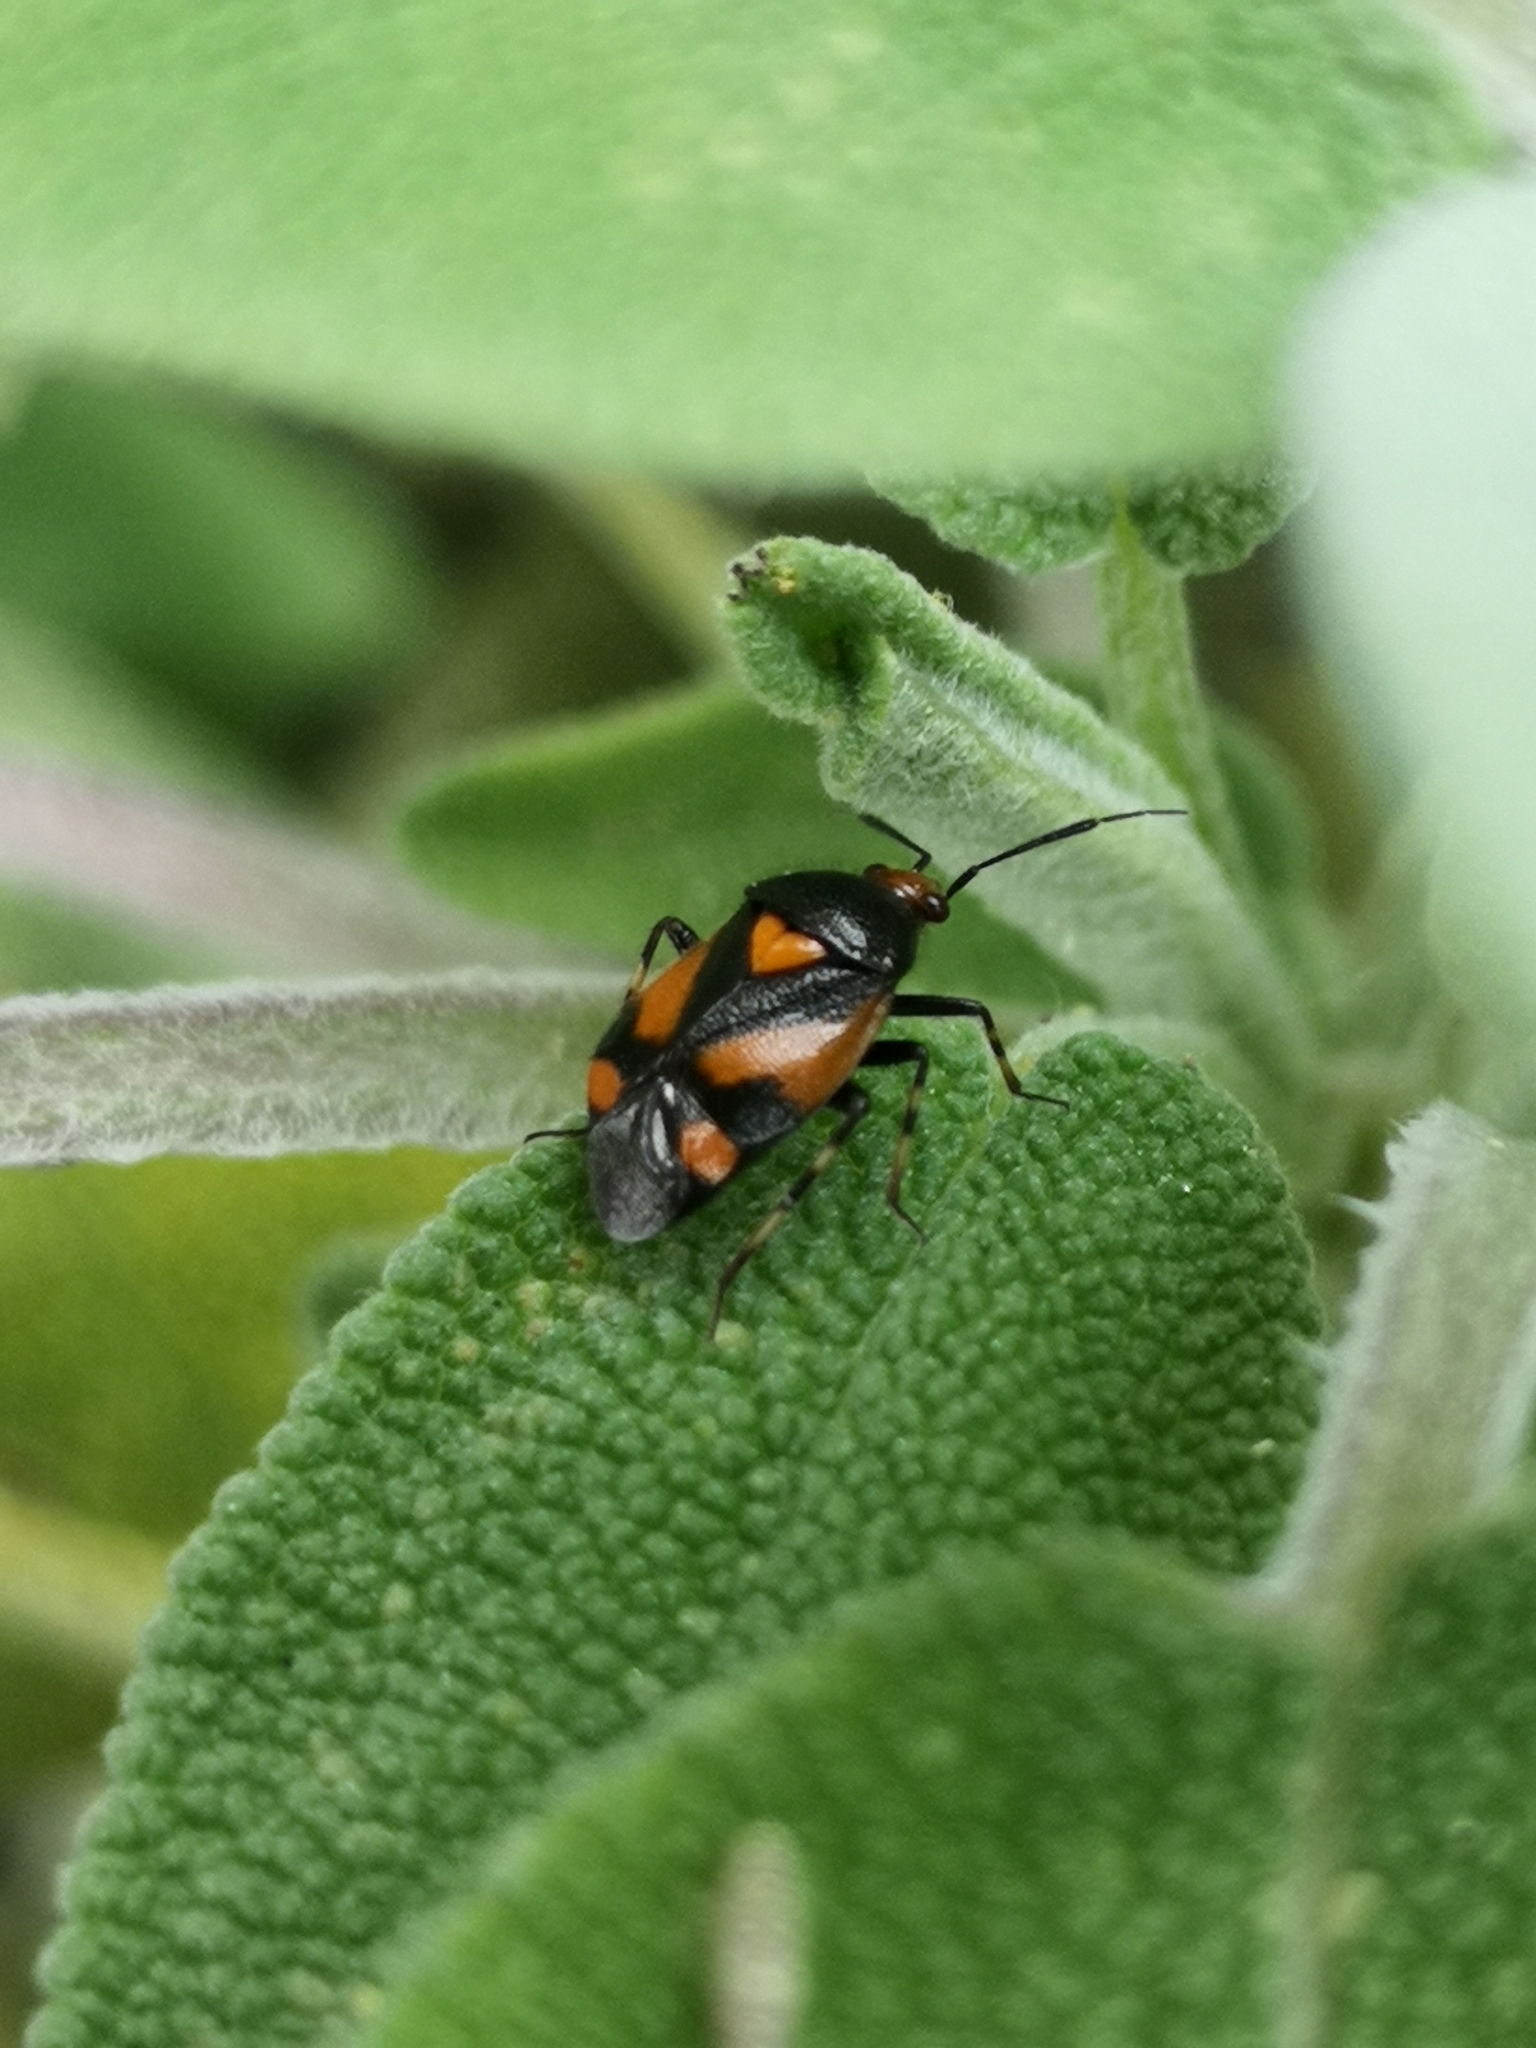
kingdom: Animalia
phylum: Arthropoda
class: Insecta
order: Hemiptera
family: Miridae
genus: Deraeocoris
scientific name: Deraeocoris schach
